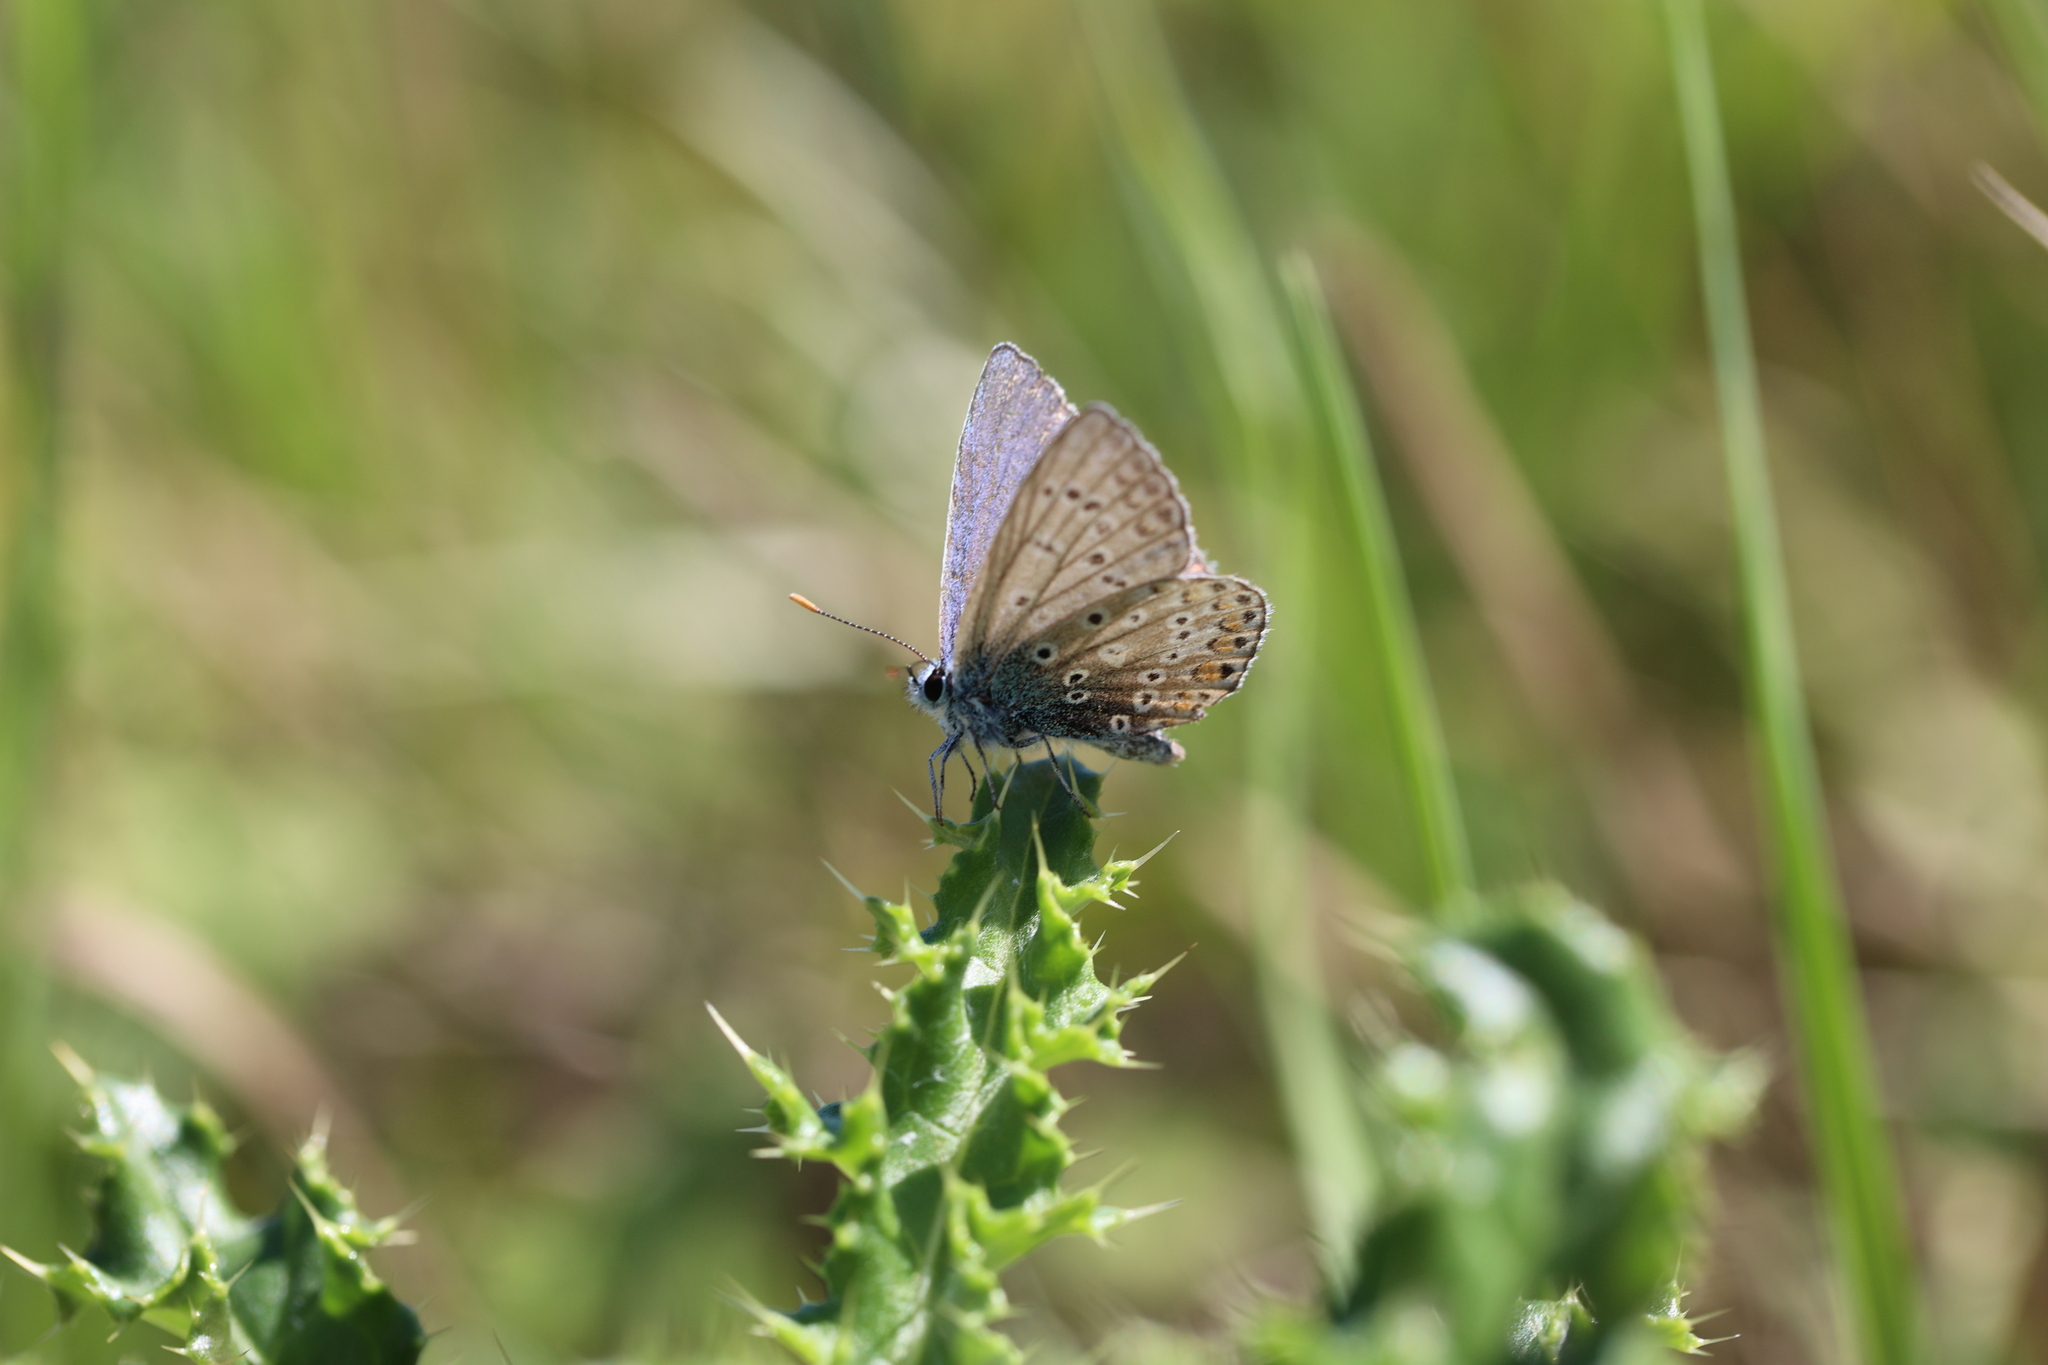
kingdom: Animalia
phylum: Arthropoda
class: Insecta
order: Lepidoptera
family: Lycaenidae
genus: Polyommatus
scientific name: Polyommatus icarus
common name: Common blue
